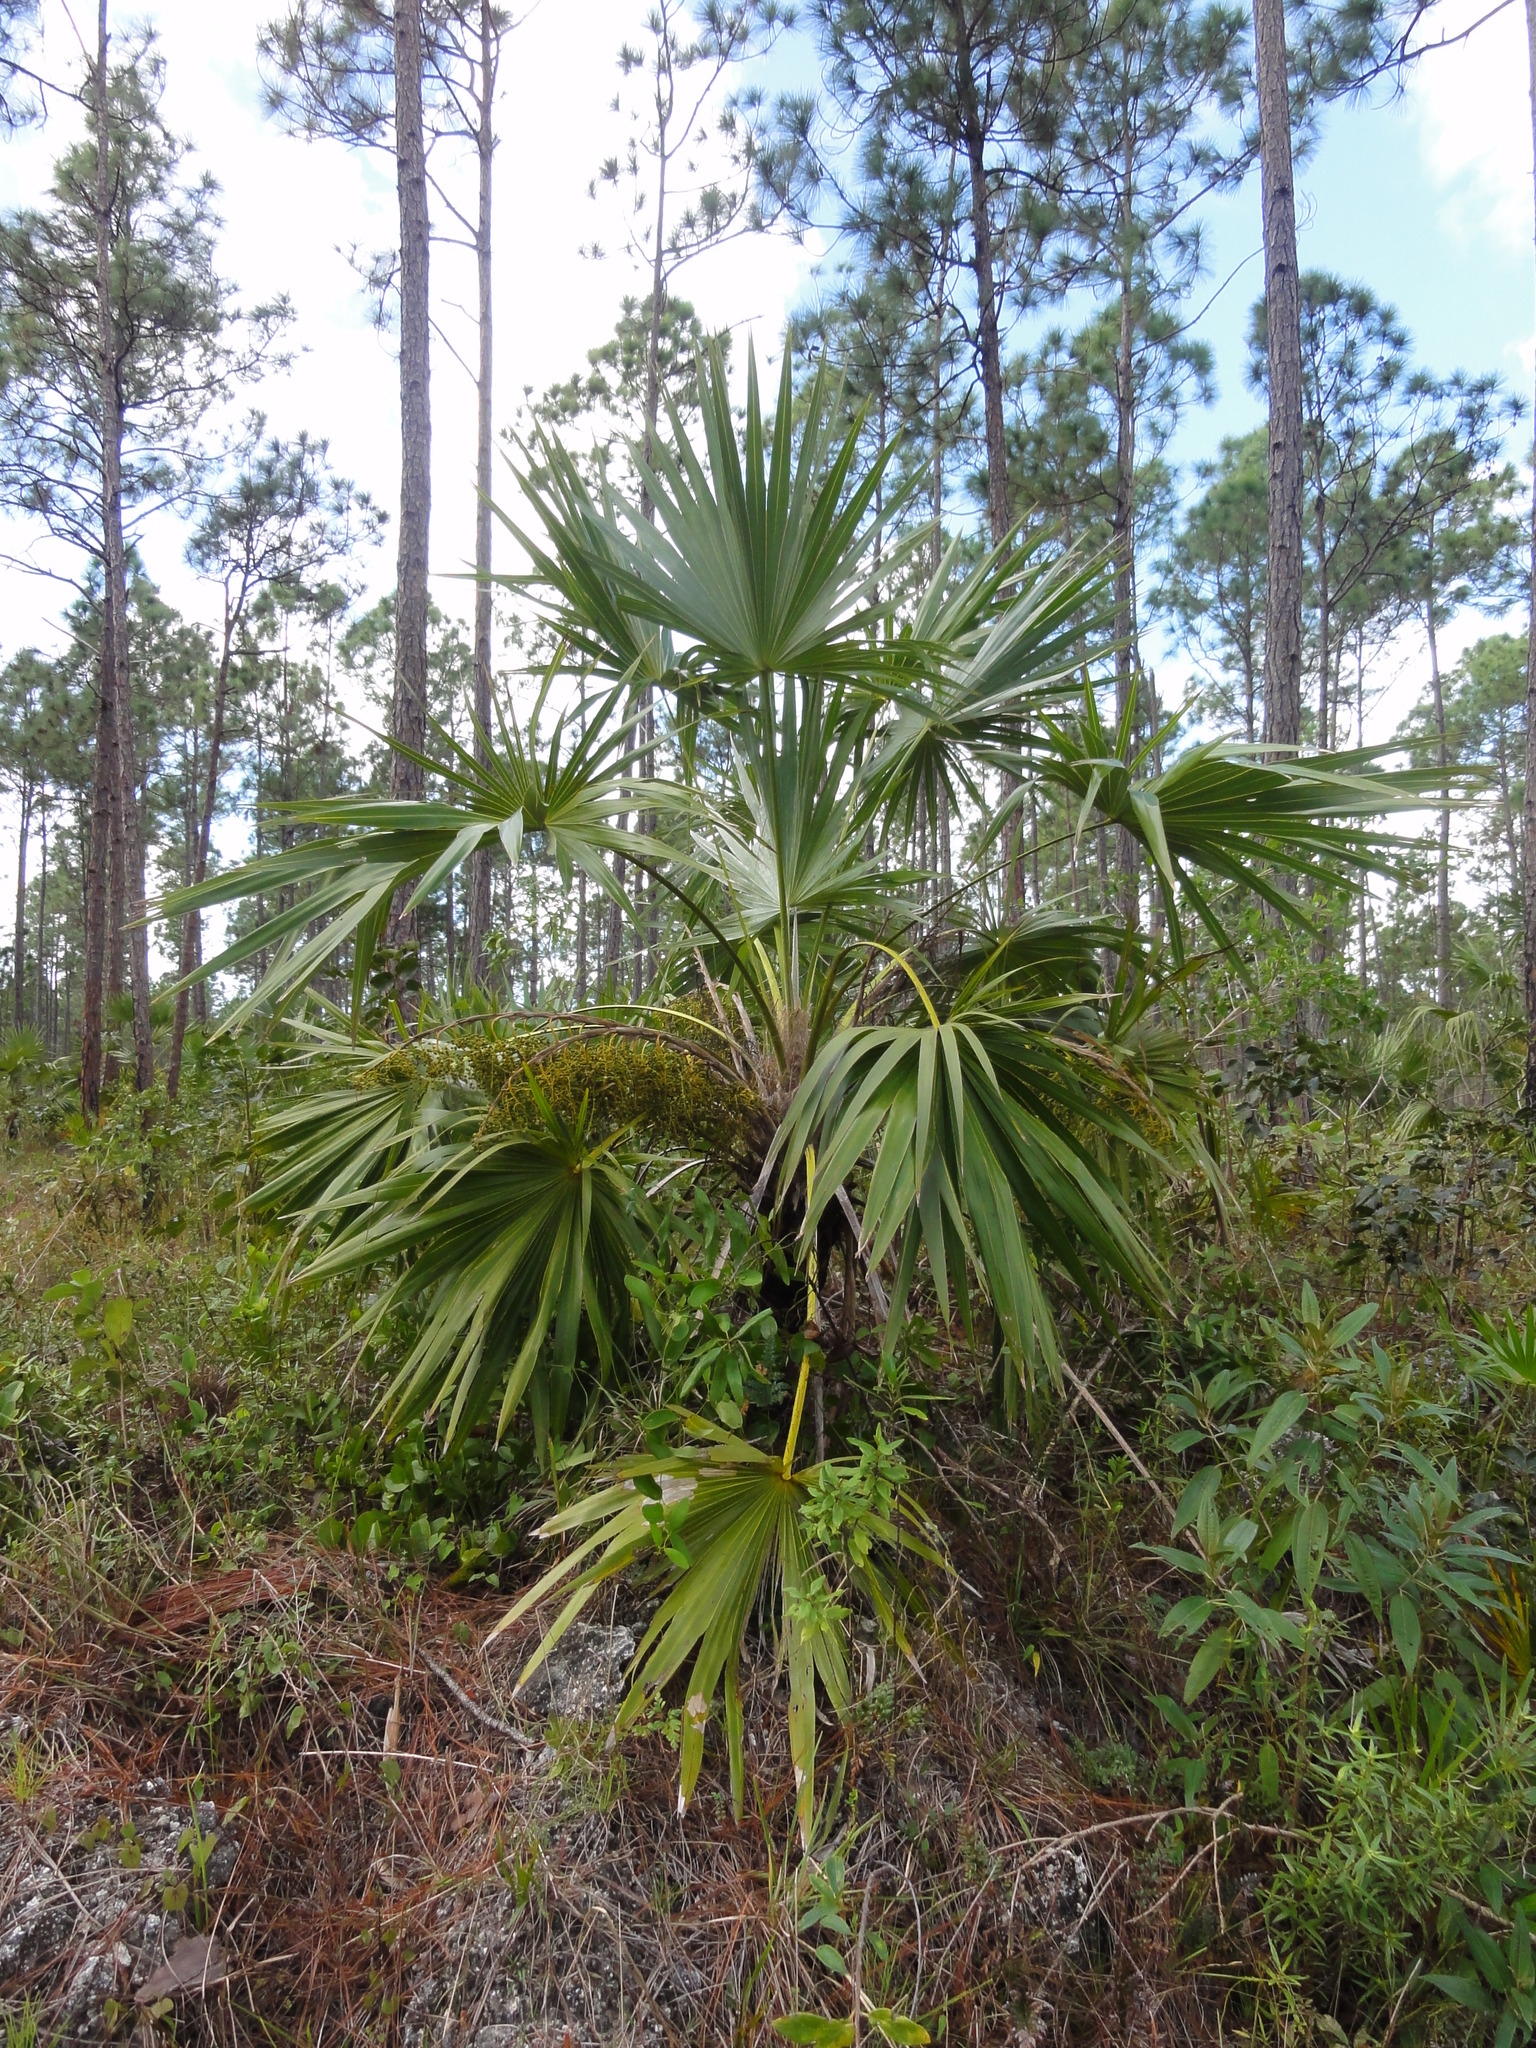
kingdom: Plantae
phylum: Tracheophyta
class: Liliopsida
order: Arecales
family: Arecaceae
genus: Leucothrinax
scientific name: Leucothrinax morrisii
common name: Key palm
